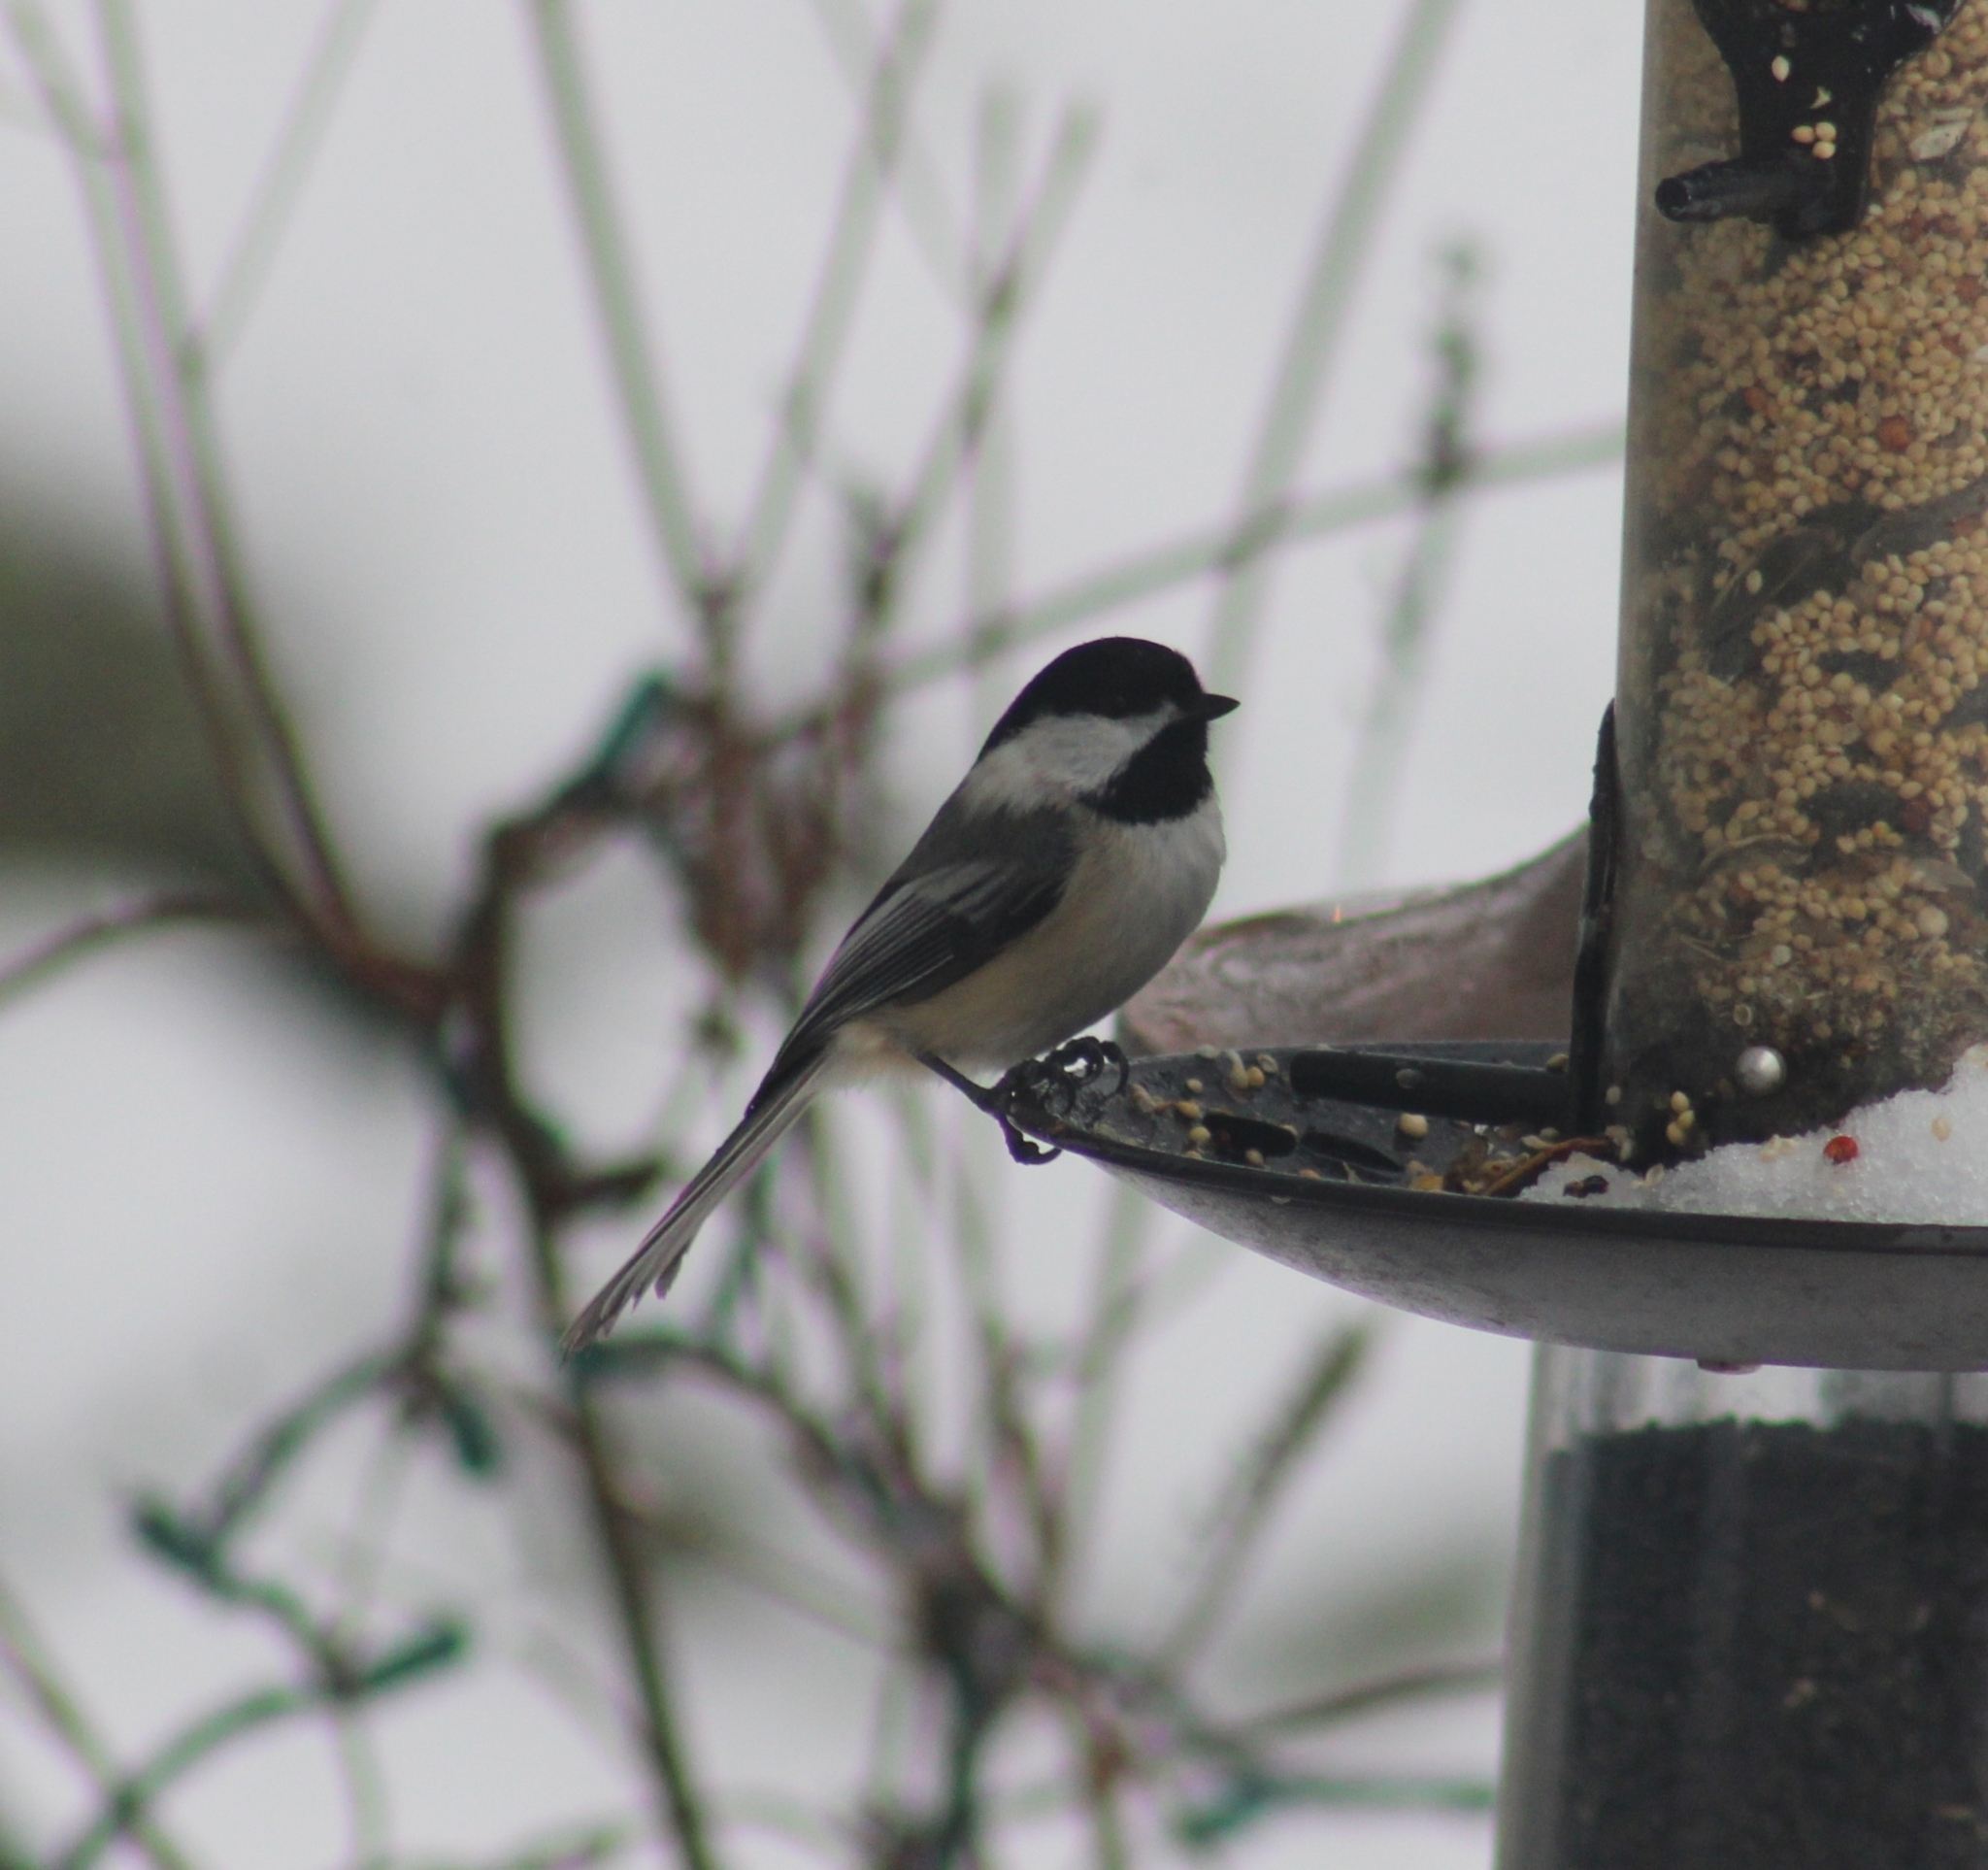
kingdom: Animalia
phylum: Chordata
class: Aves
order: Passeriformes
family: Paridae
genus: Poecile
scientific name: Poecile atricapillus
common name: Black-capped chickadee
